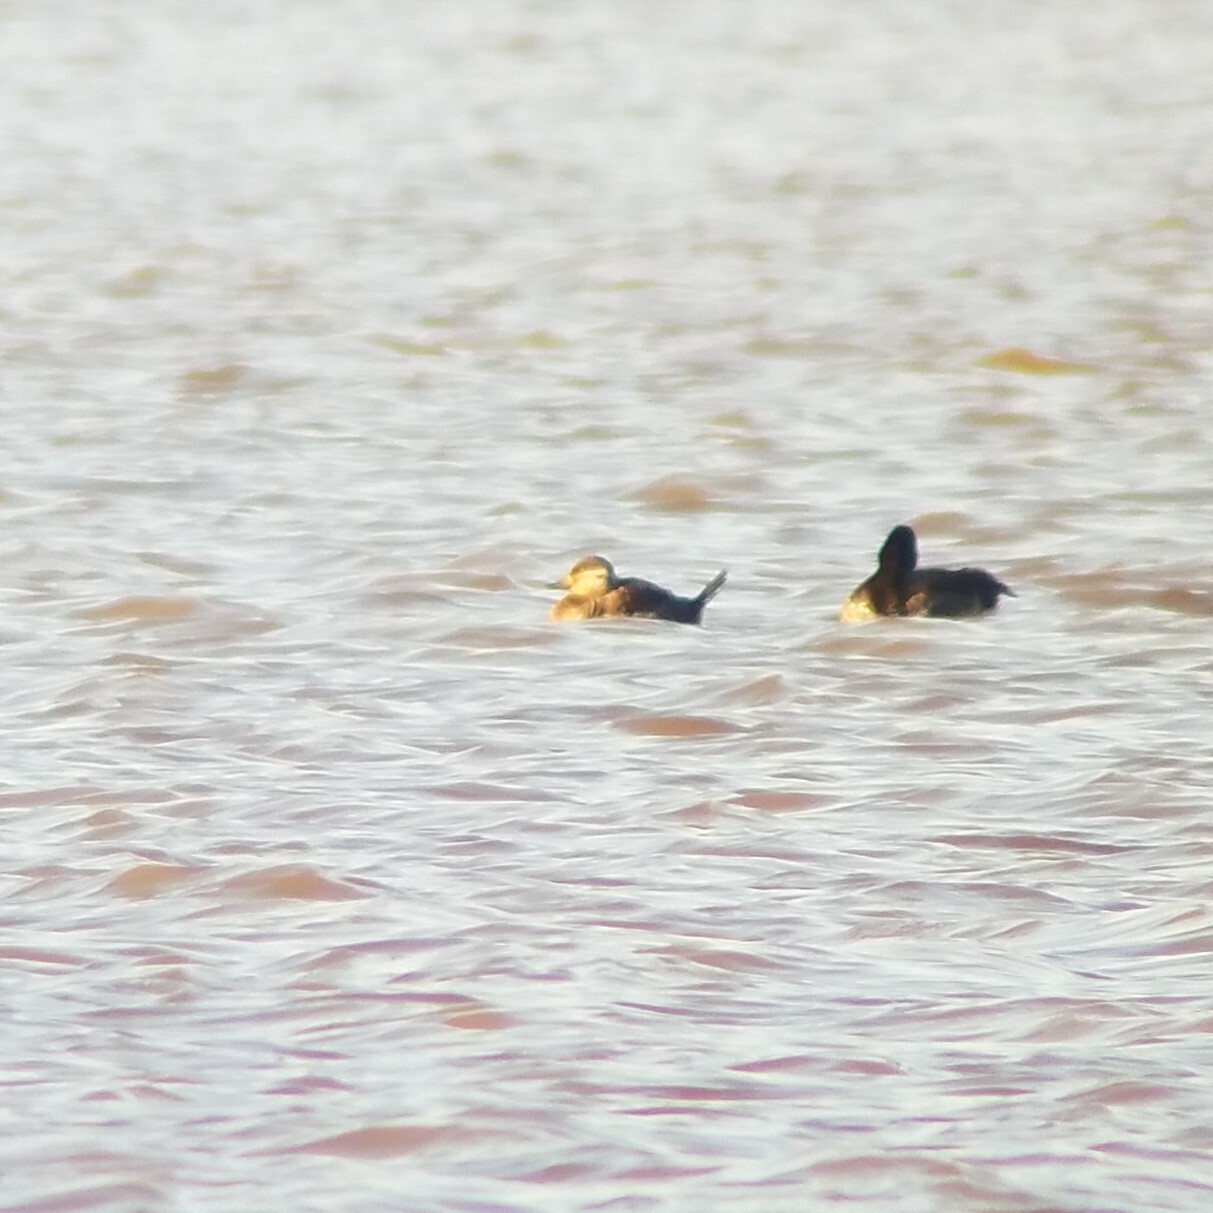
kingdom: Animalia
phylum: Chordata
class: Aves
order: Anseriformes
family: Anatidae
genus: Oxyura
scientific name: Oxyura jamaicensis
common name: Ruddy duck
